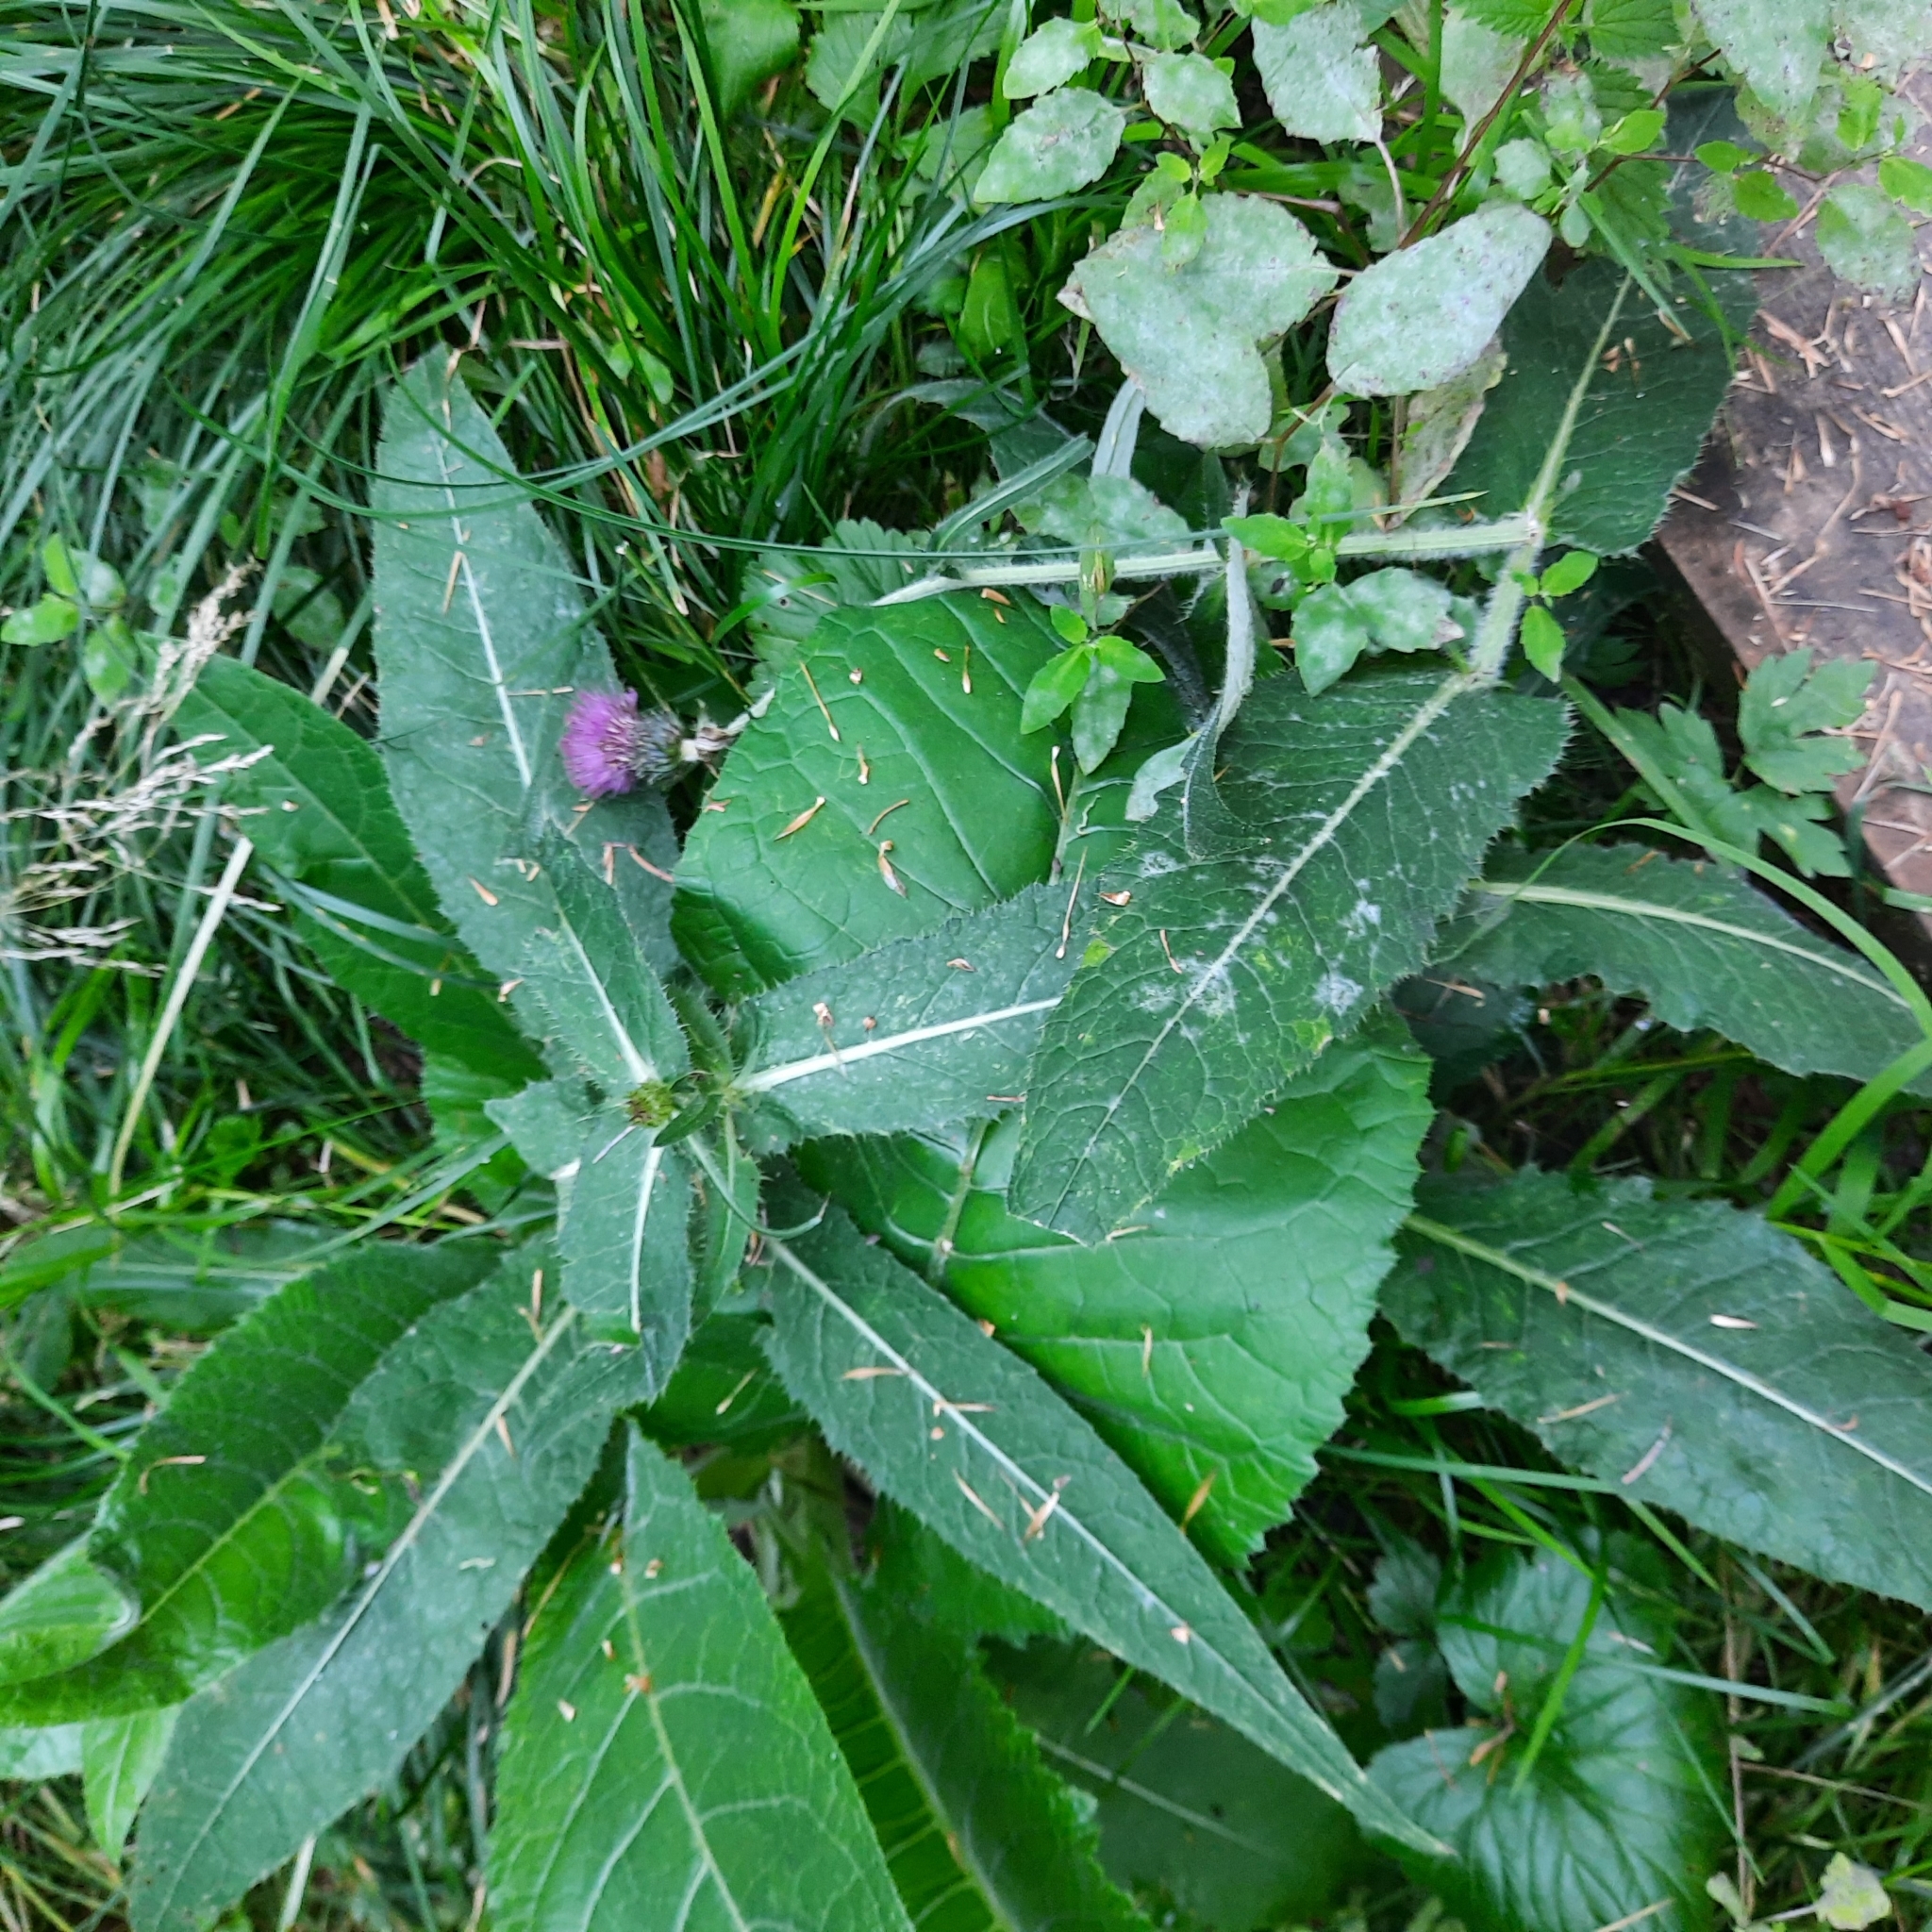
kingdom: Plantae
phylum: Tracheophyta
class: Magnoliopsida
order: Asterales
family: Asteraceae
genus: Cirsium
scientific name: Cirsium helenioides
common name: Melancholy thistle
